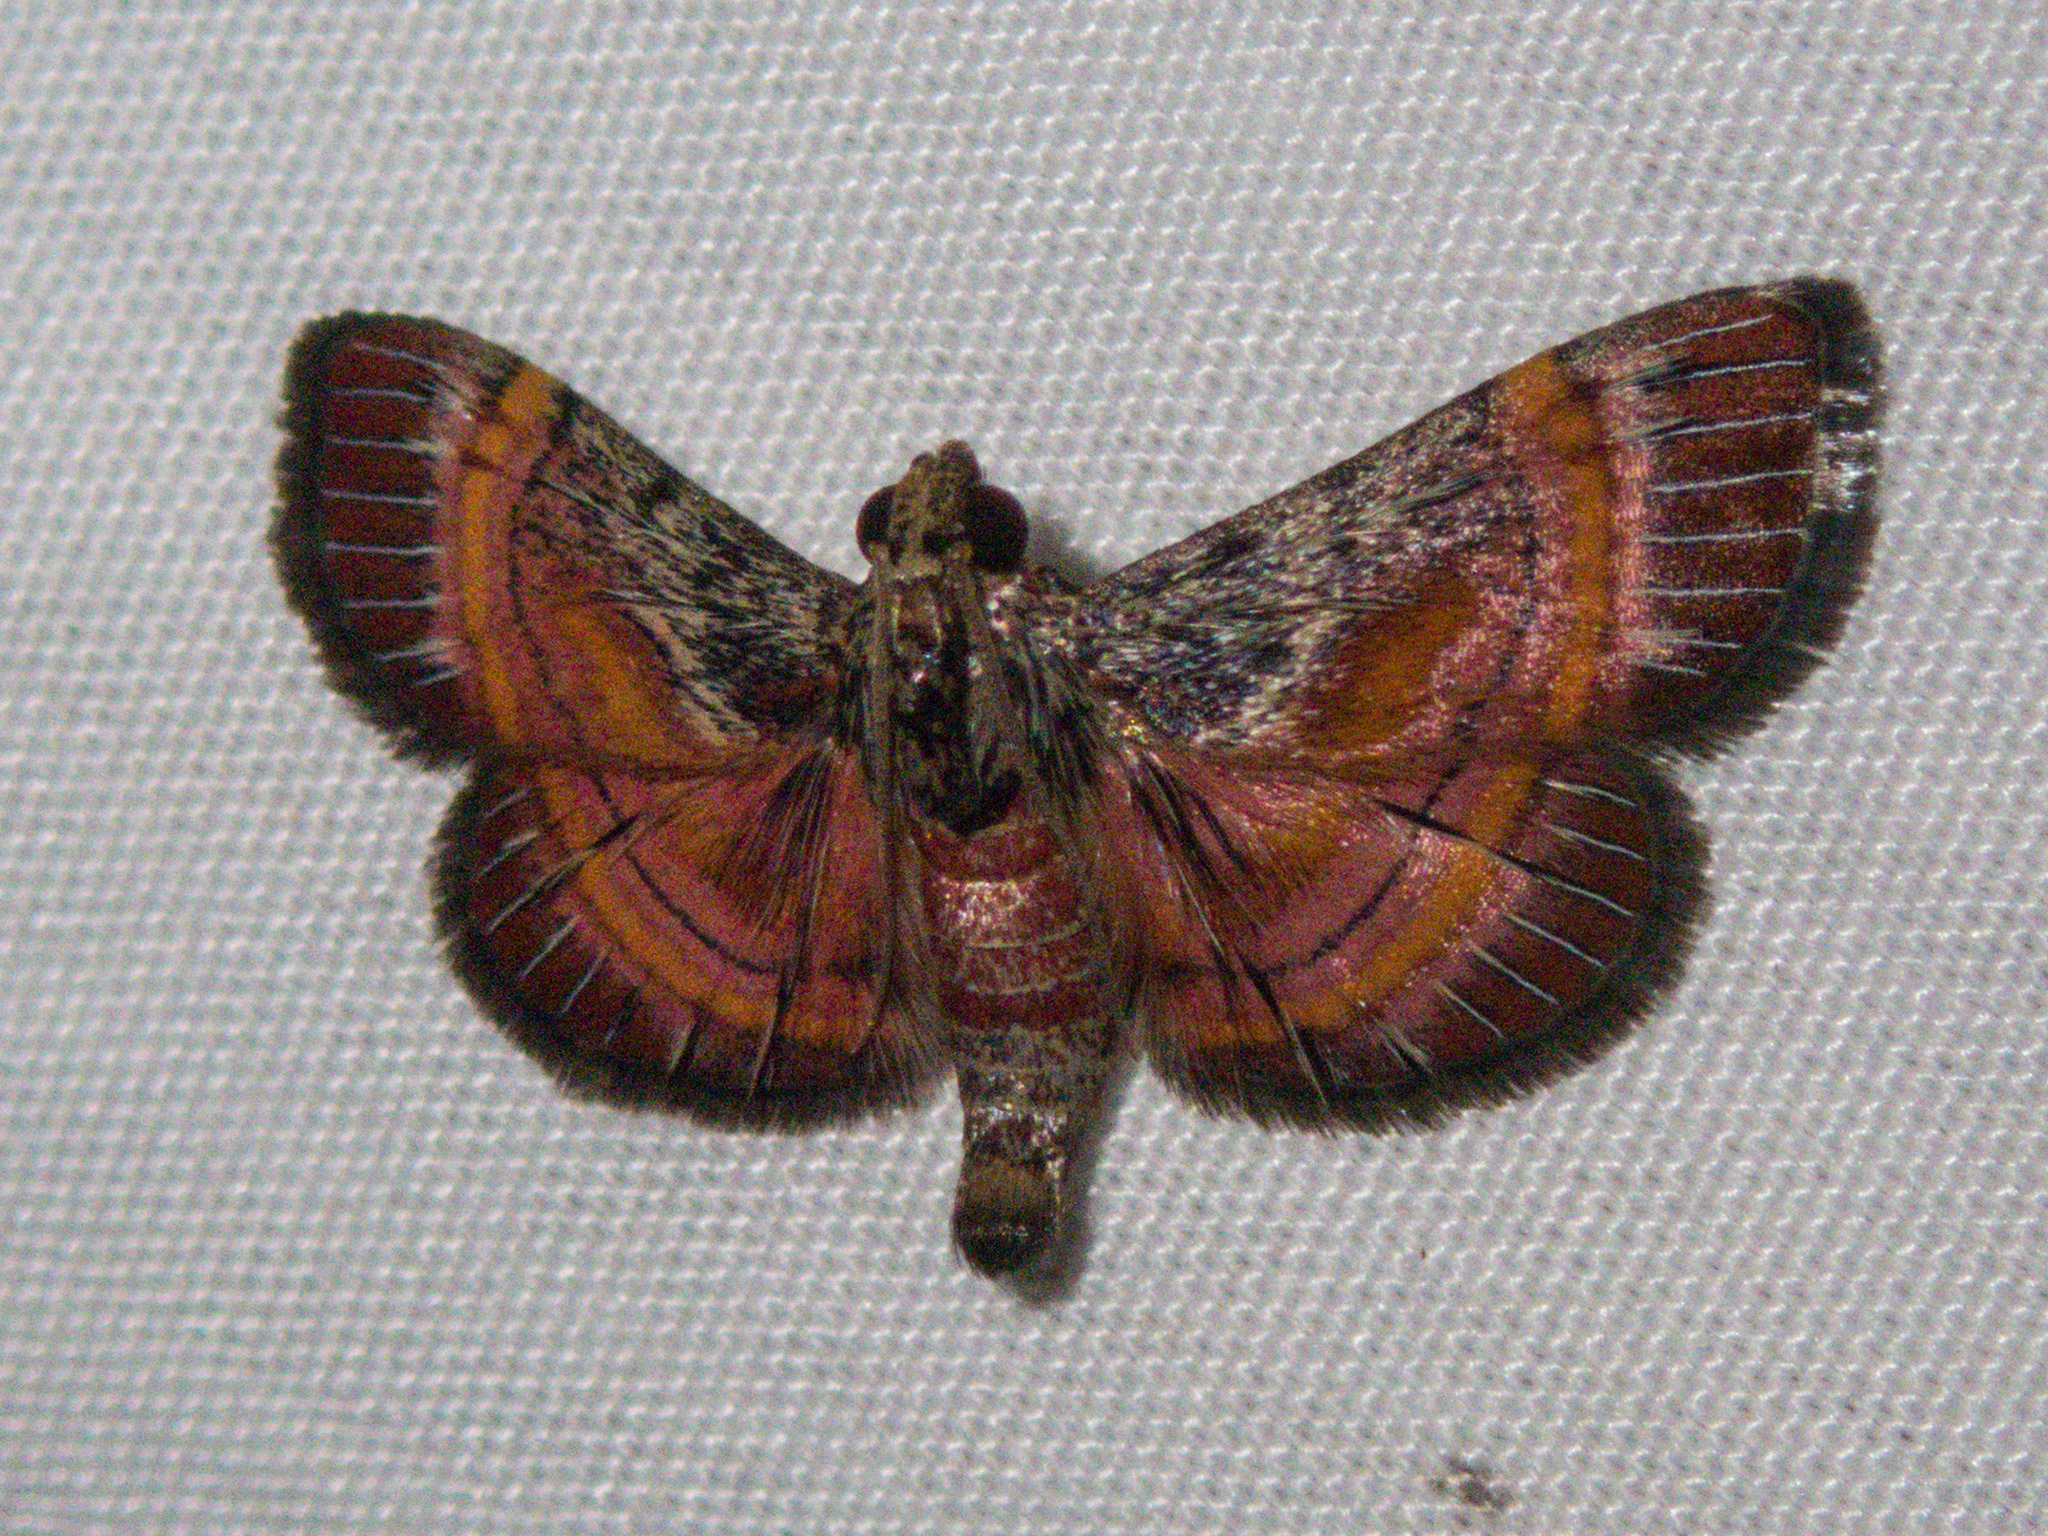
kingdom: Animalia
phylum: Arthropoda
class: Insecta
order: Lepidoptera
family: Pyralidae
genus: Lista
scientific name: Lista ficki
